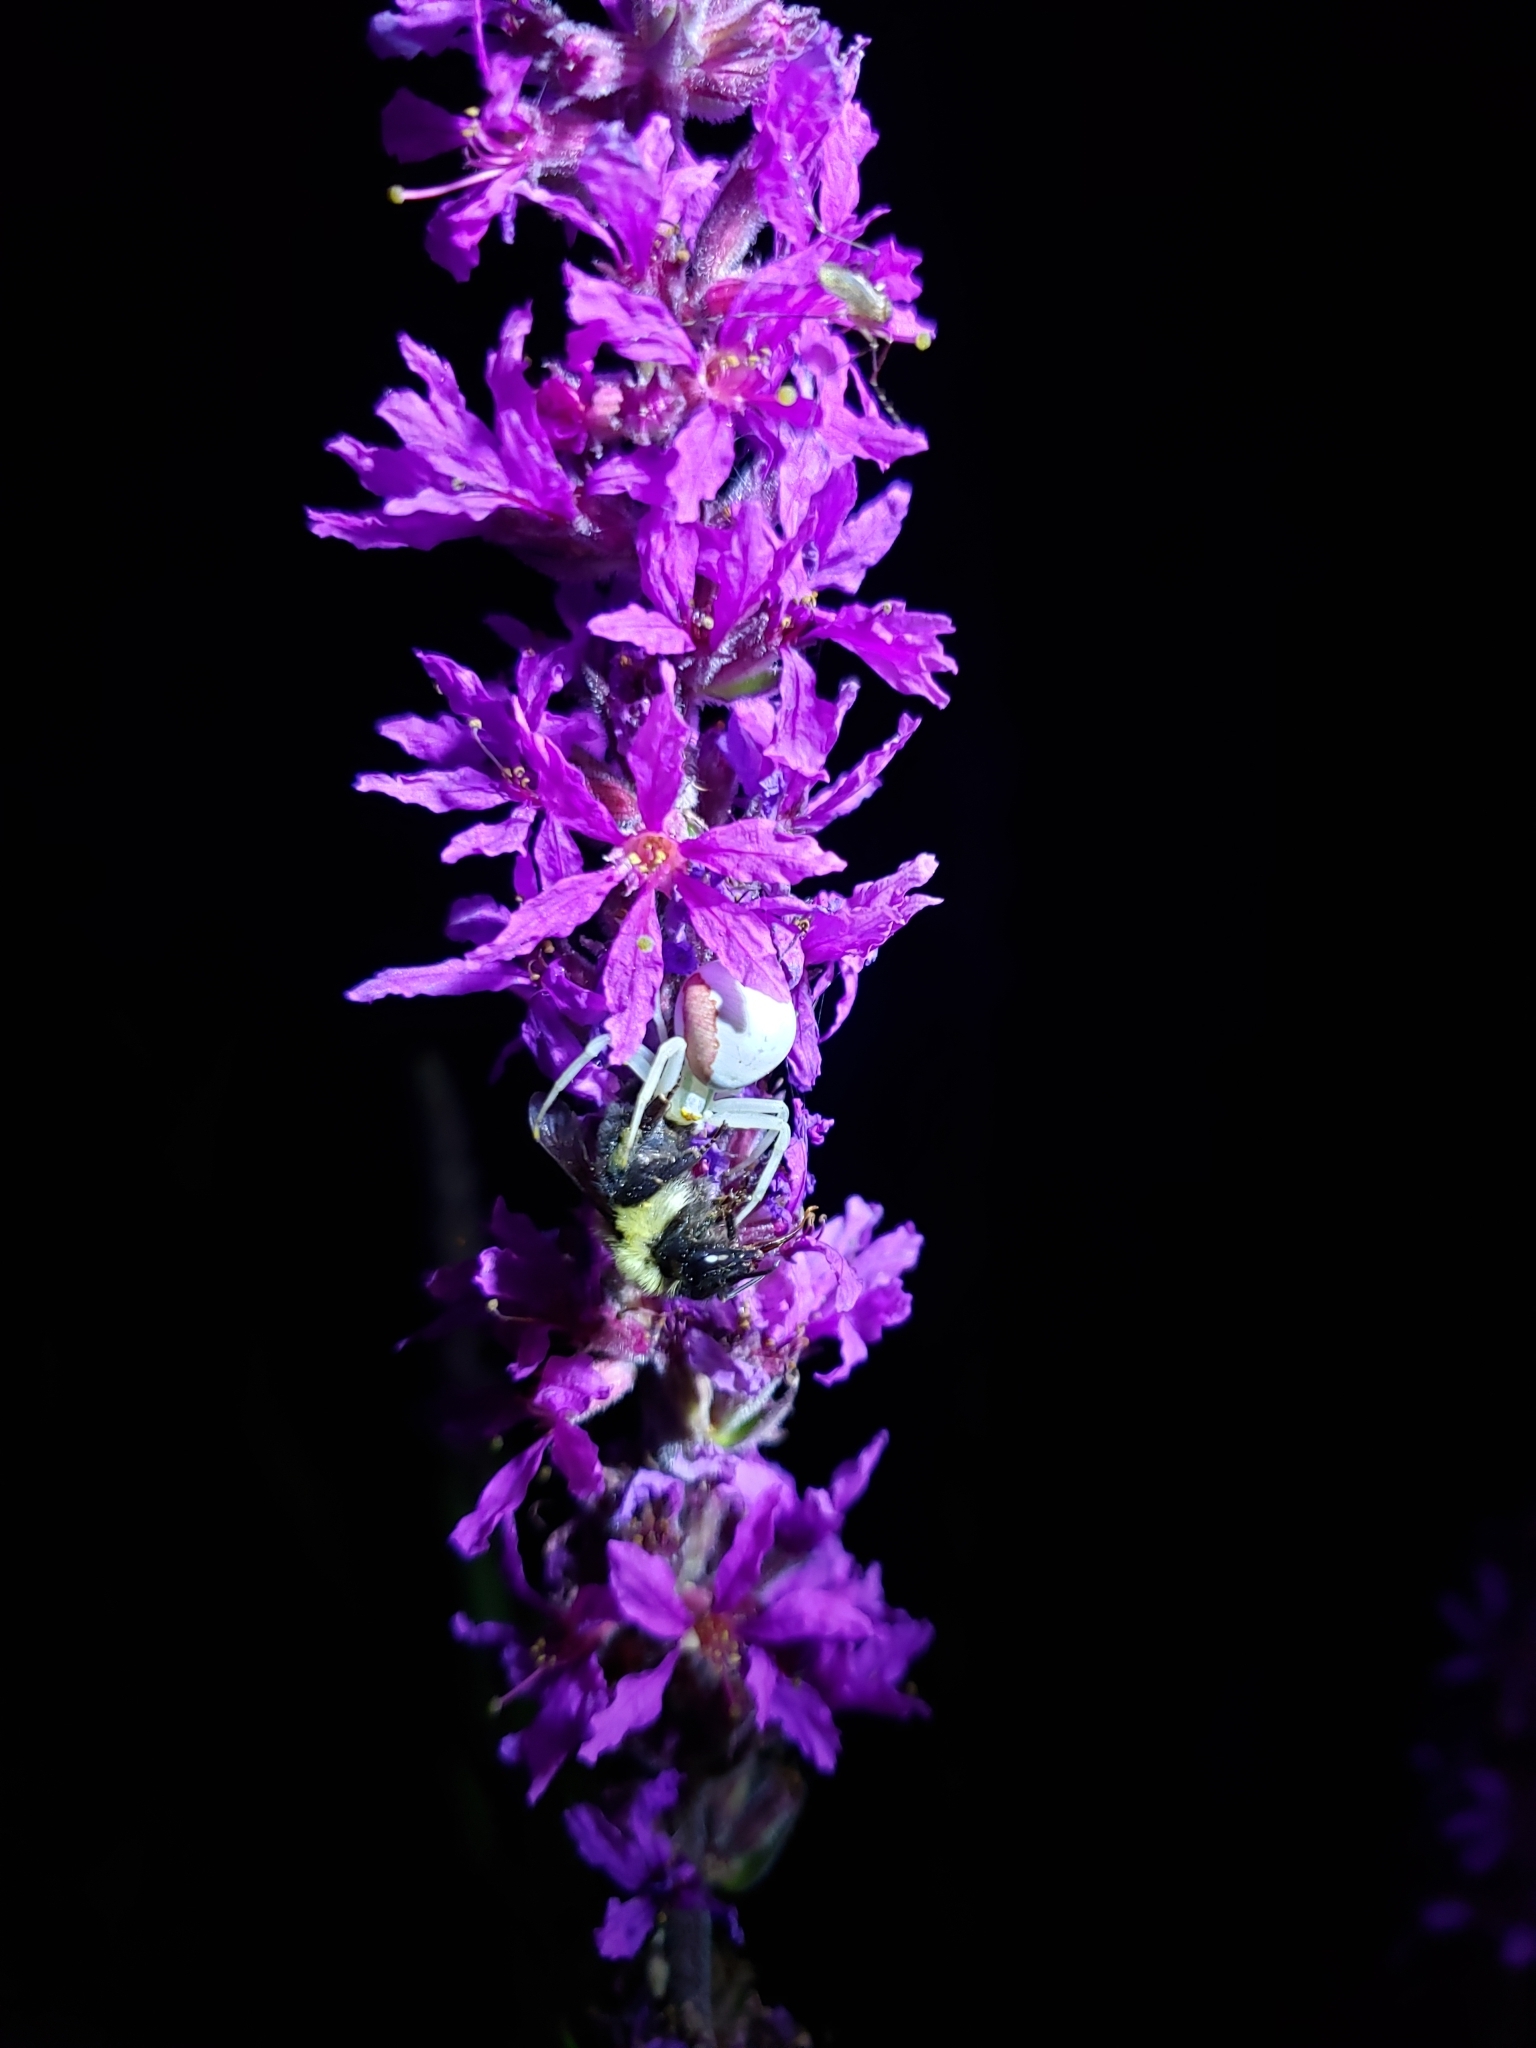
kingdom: Animalia
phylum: Arthropoda
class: Arachnida
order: Araneae
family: Thomisidae
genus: Misumena
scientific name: Misumena vatia
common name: Goldenrod crab spider
